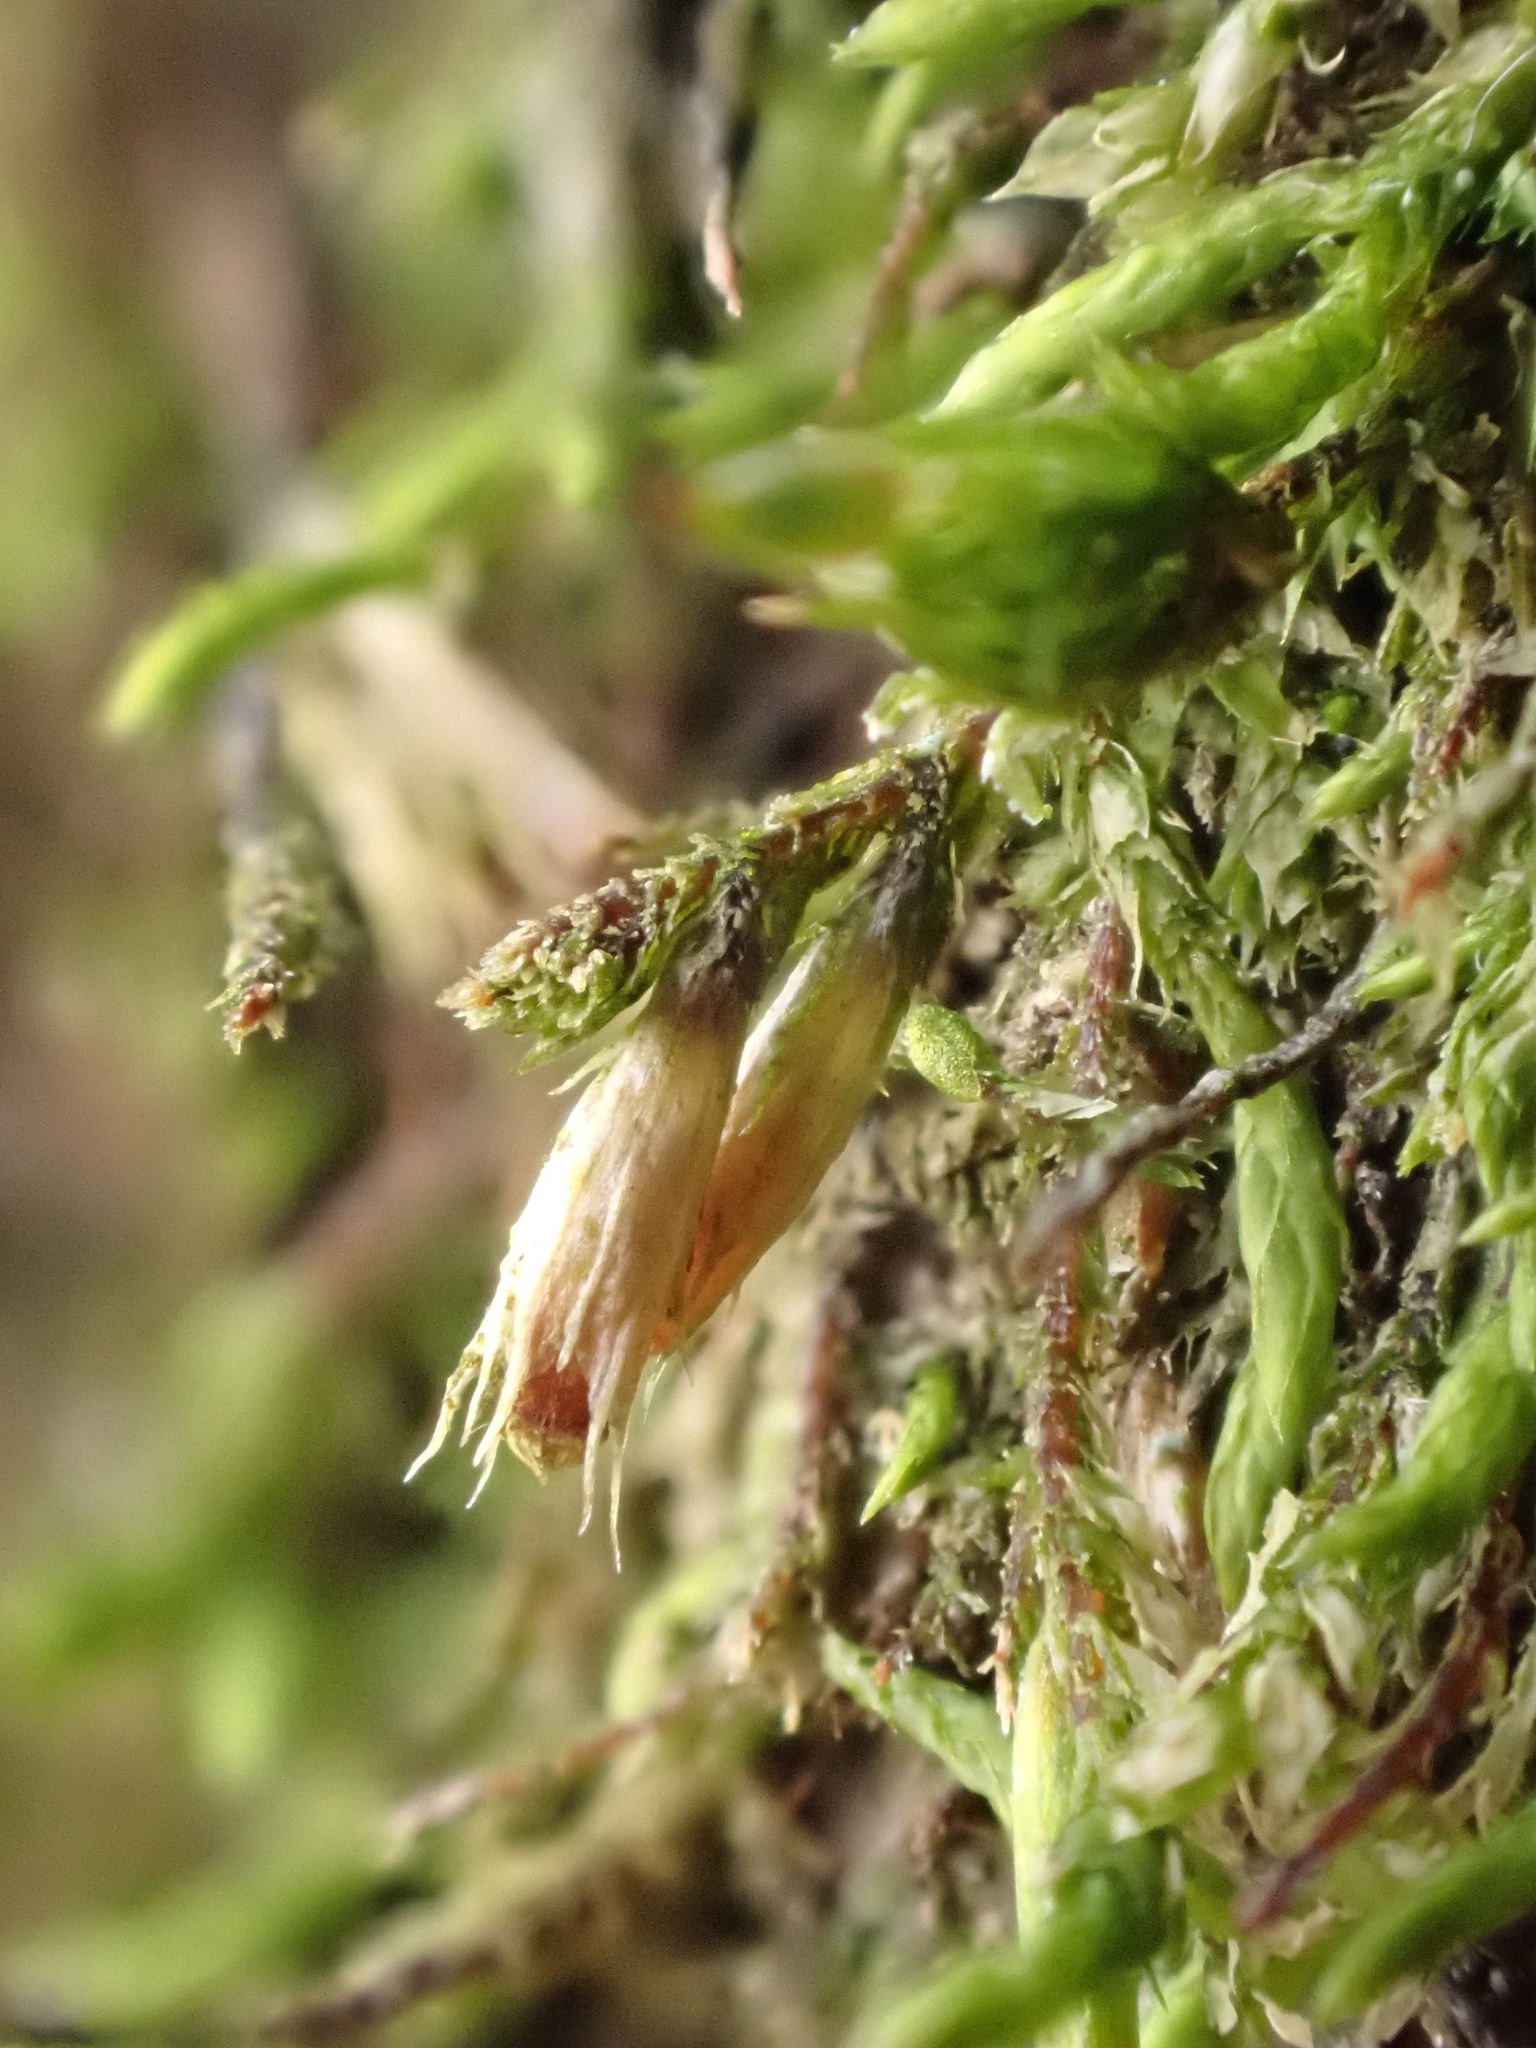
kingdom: Plantae
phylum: Bryophyta
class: Bryopsida
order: Hypnales
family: Cryphaeaceae
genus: Cryphaea
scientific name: Cryphaea heteromalla
